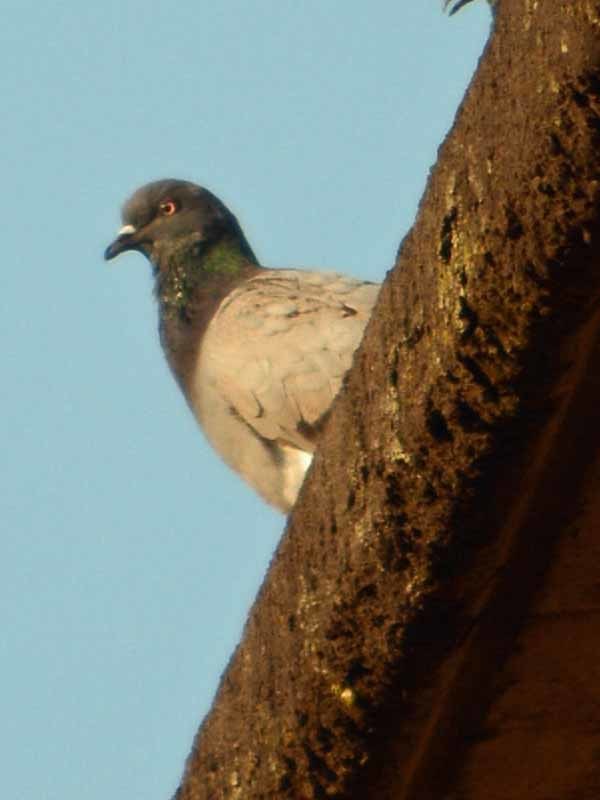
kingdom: Animalia
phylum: Chordata
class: Aves
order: Columbiformes
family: Columbidae
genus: Columba
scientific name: Columba livia
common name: Rock pigeon
